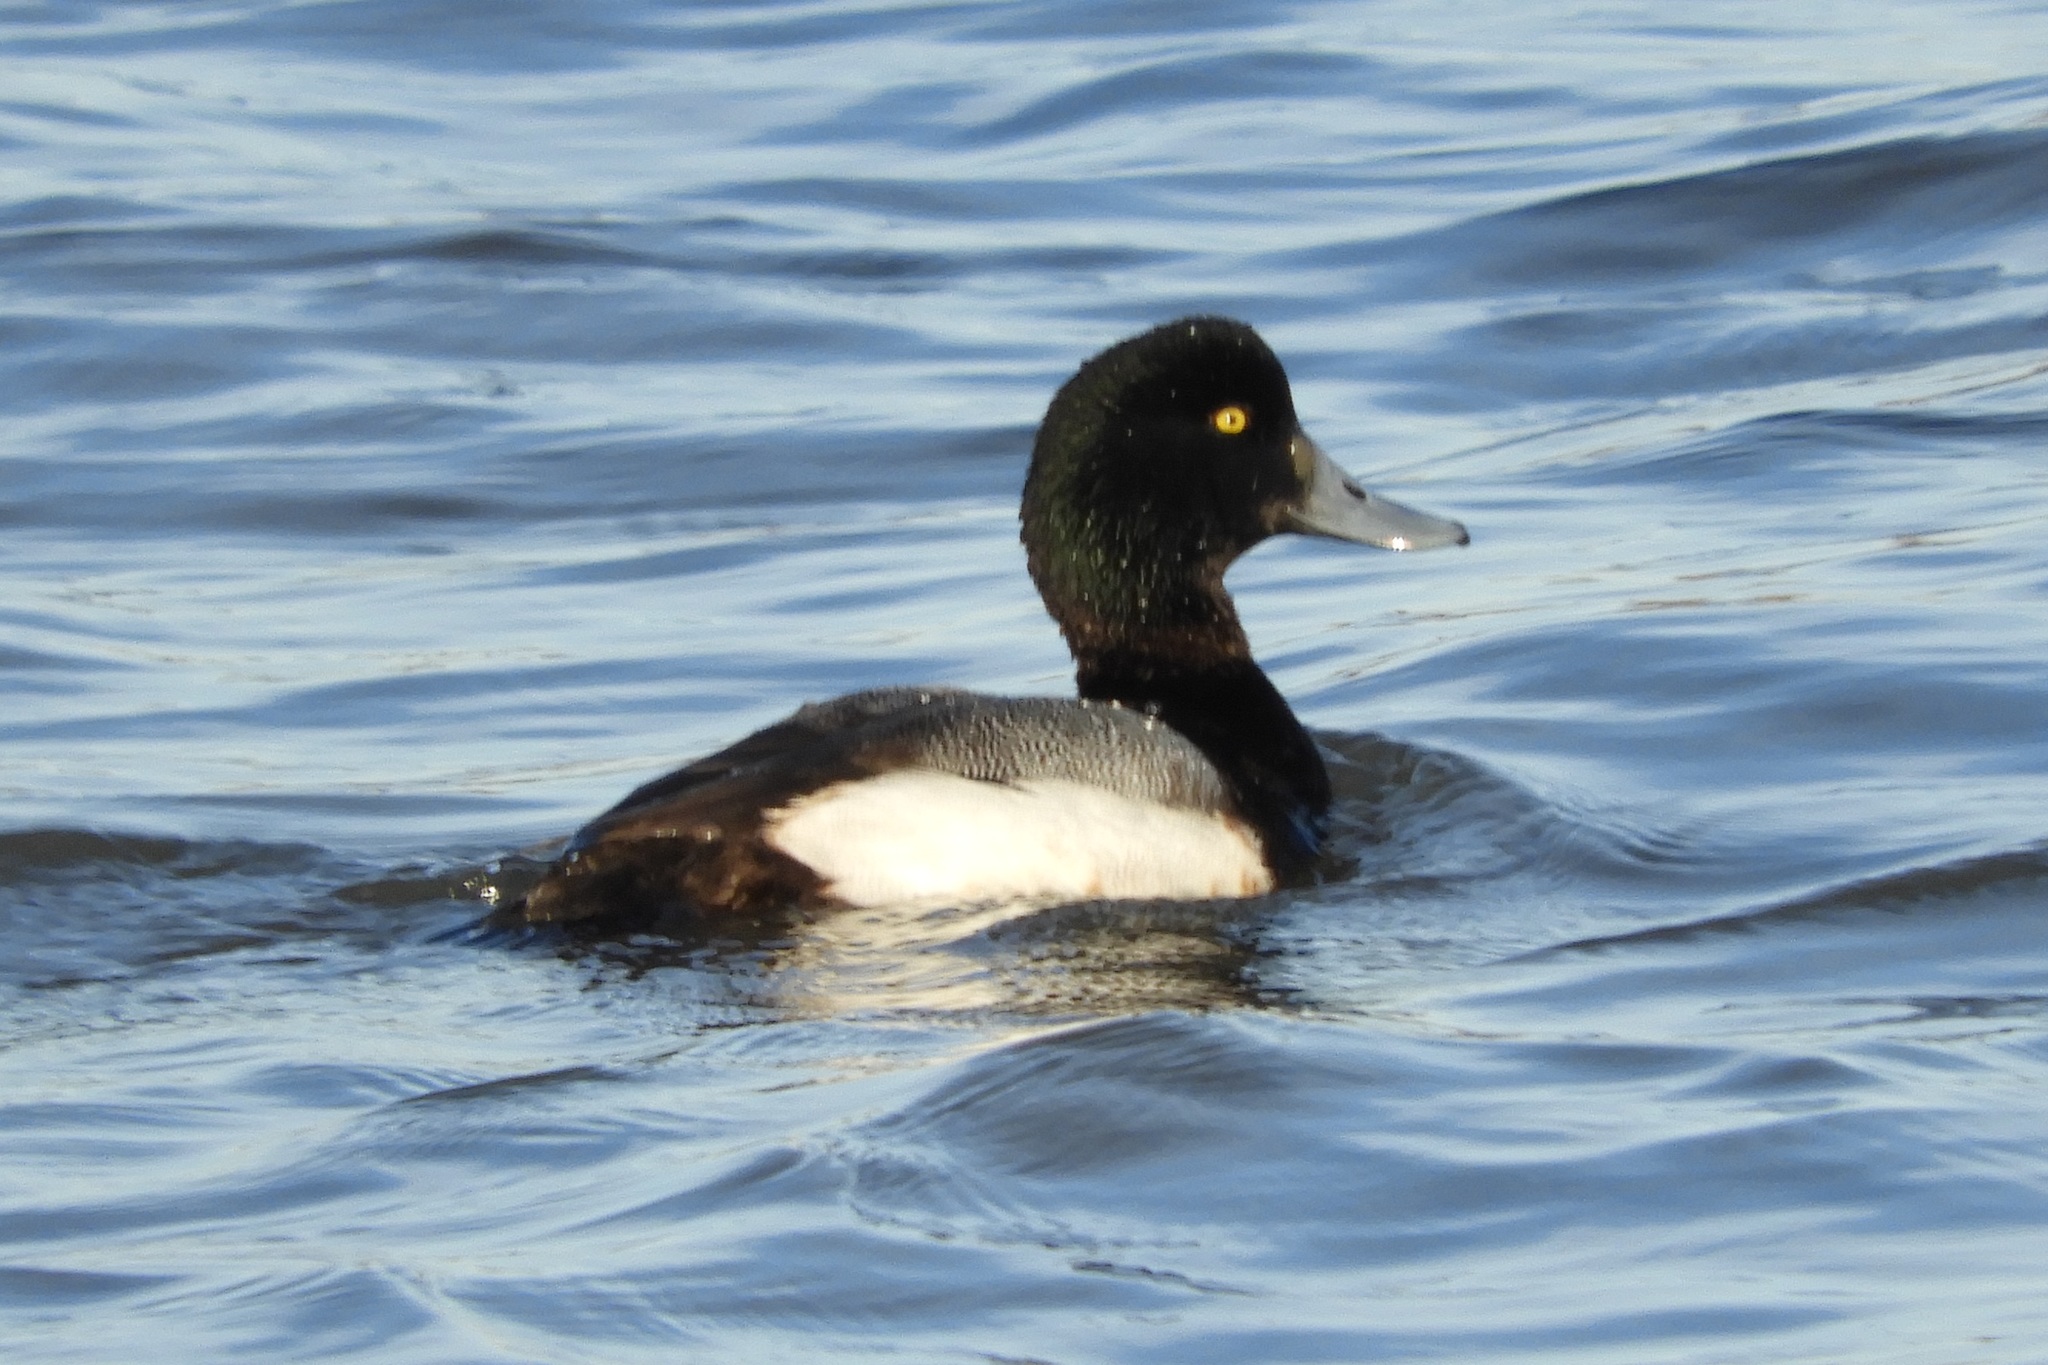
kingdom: Animalia
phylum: Chordata
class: Aves
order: Anseriformes
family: Anatidae
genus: Aythya
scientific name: Aythya marila
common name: Greater scaup
